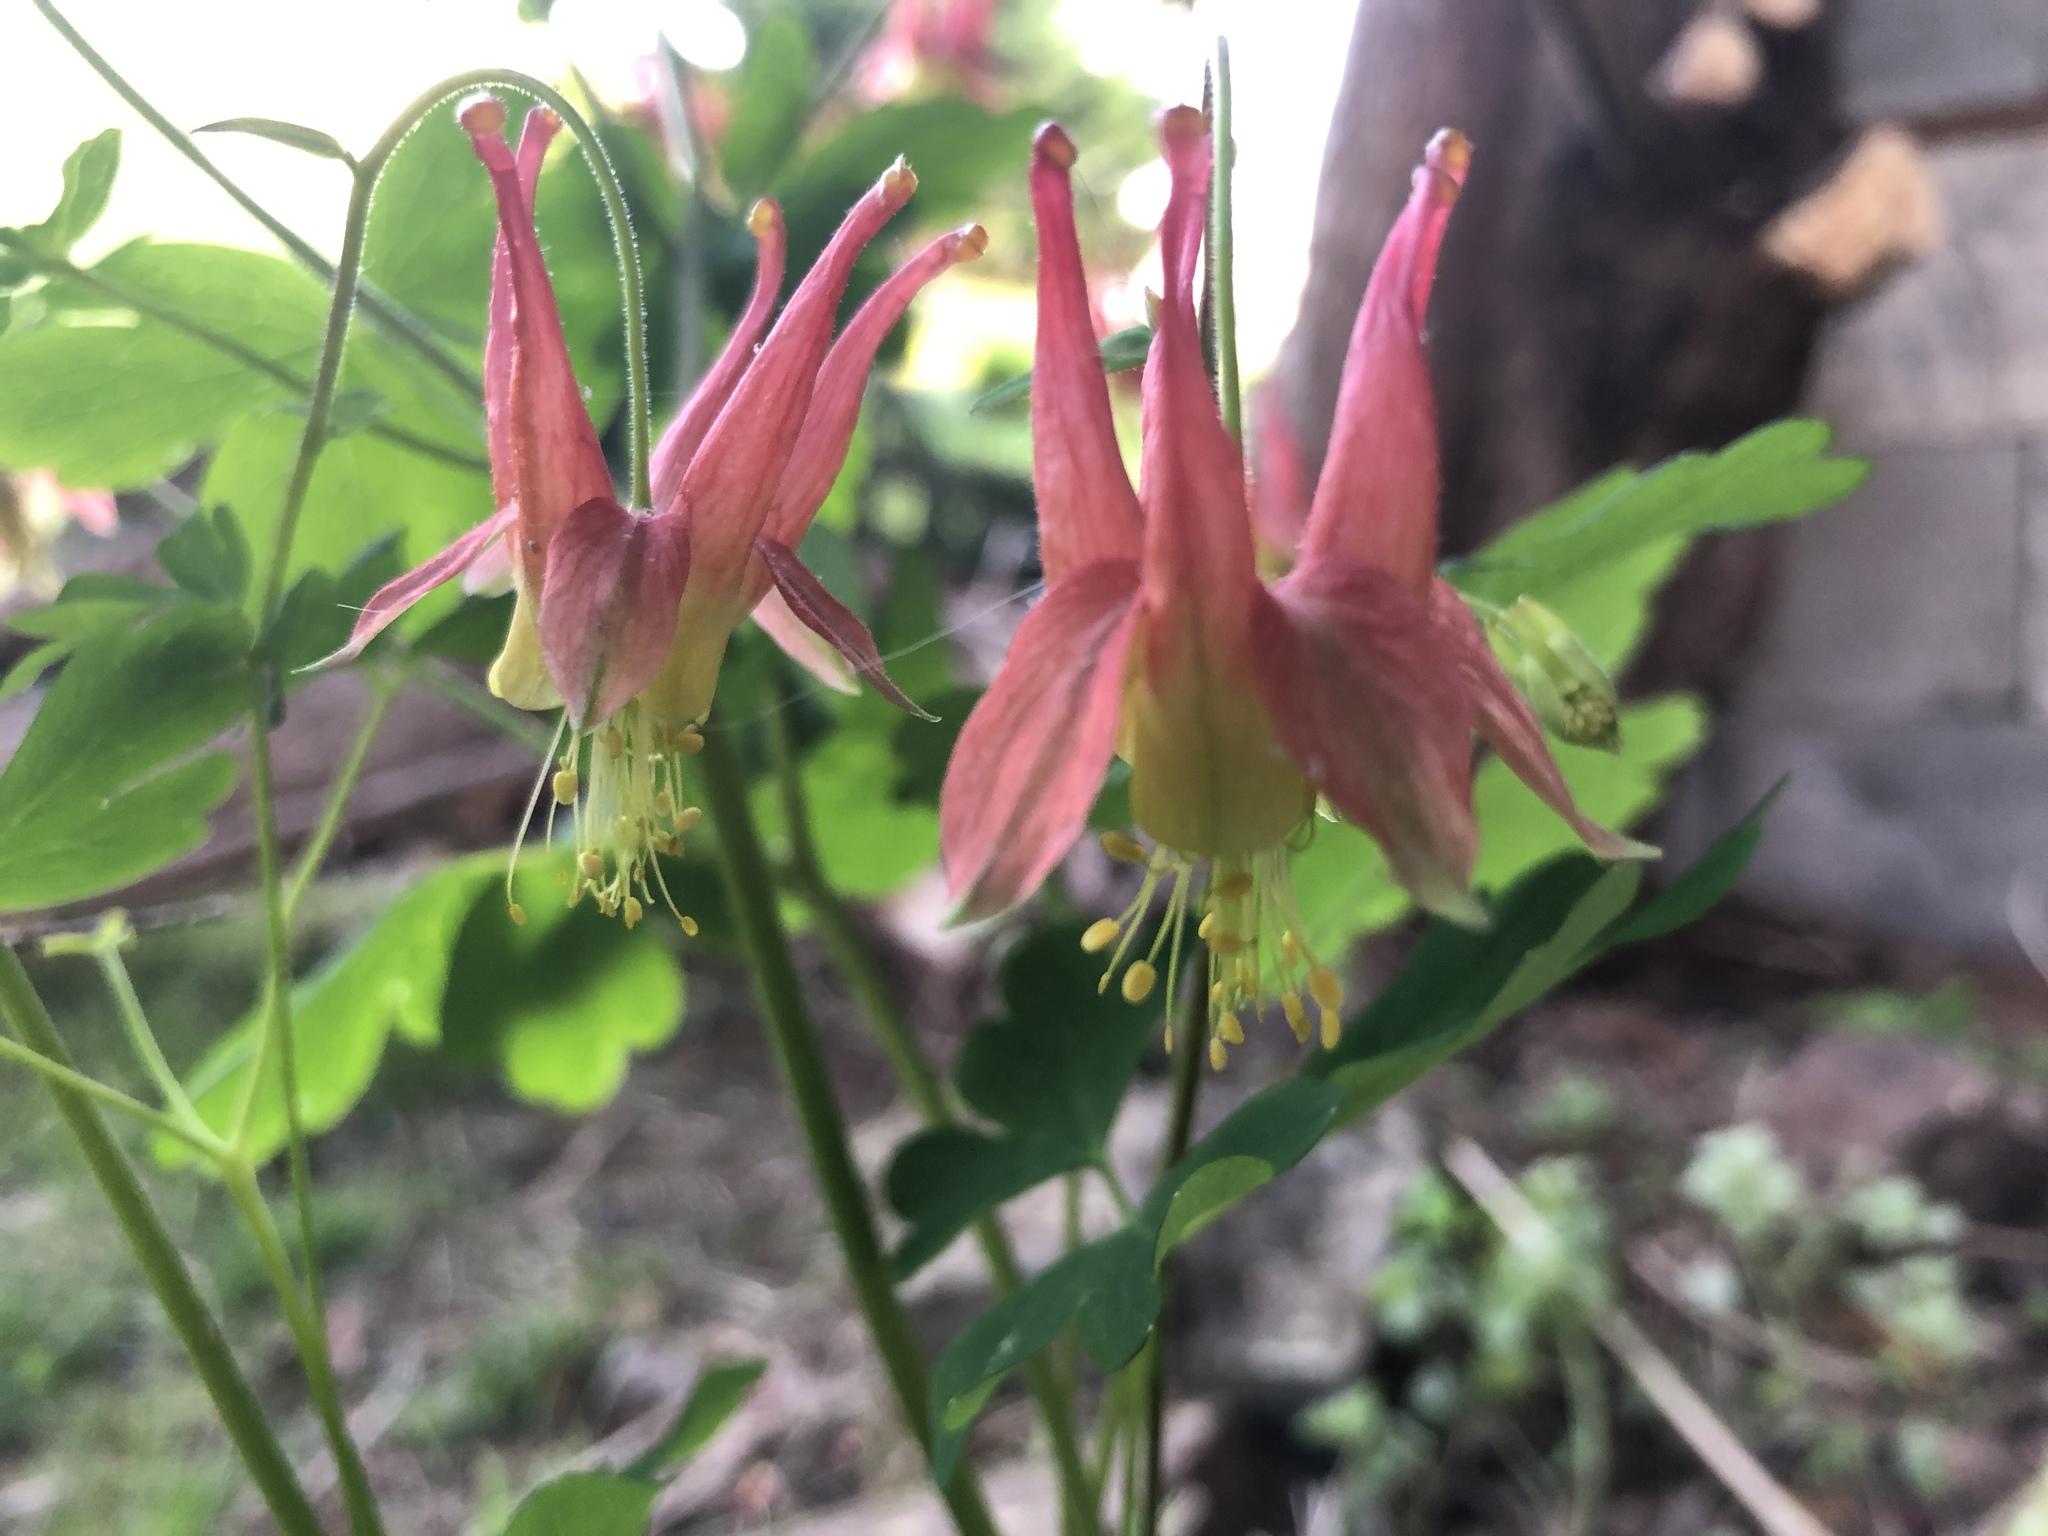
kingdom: Plantae
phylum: Tracheophyta
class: Magnoliopsida
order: Ranunculales
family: Ranunculaceae
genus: Aquilegia
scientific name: Aquilegia canadensis
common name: American columbine
